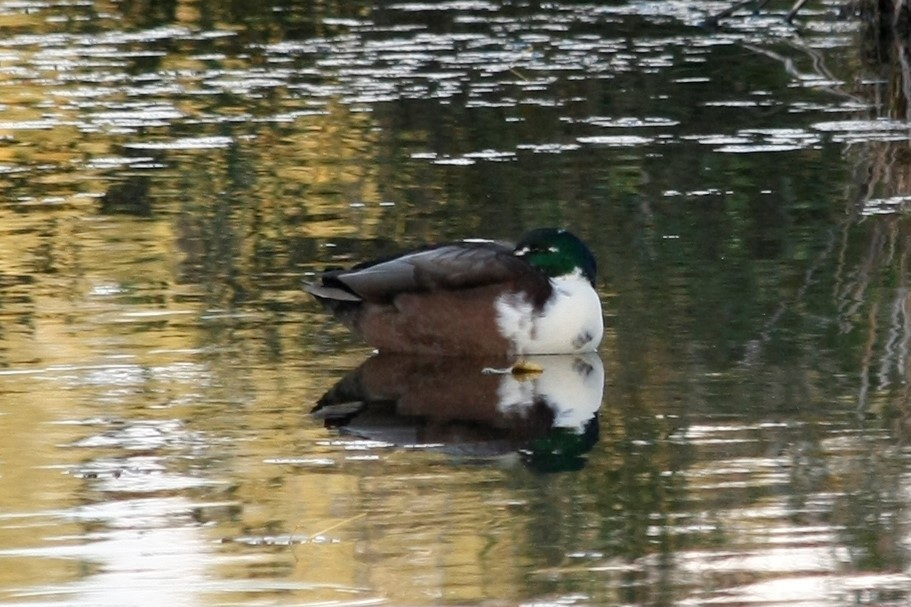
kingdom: Animalia
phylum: Chordata
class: Aves
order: Anseriformes
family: Anatidae
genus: Anas
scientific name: Anas platyrhynchos
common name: Mallard
